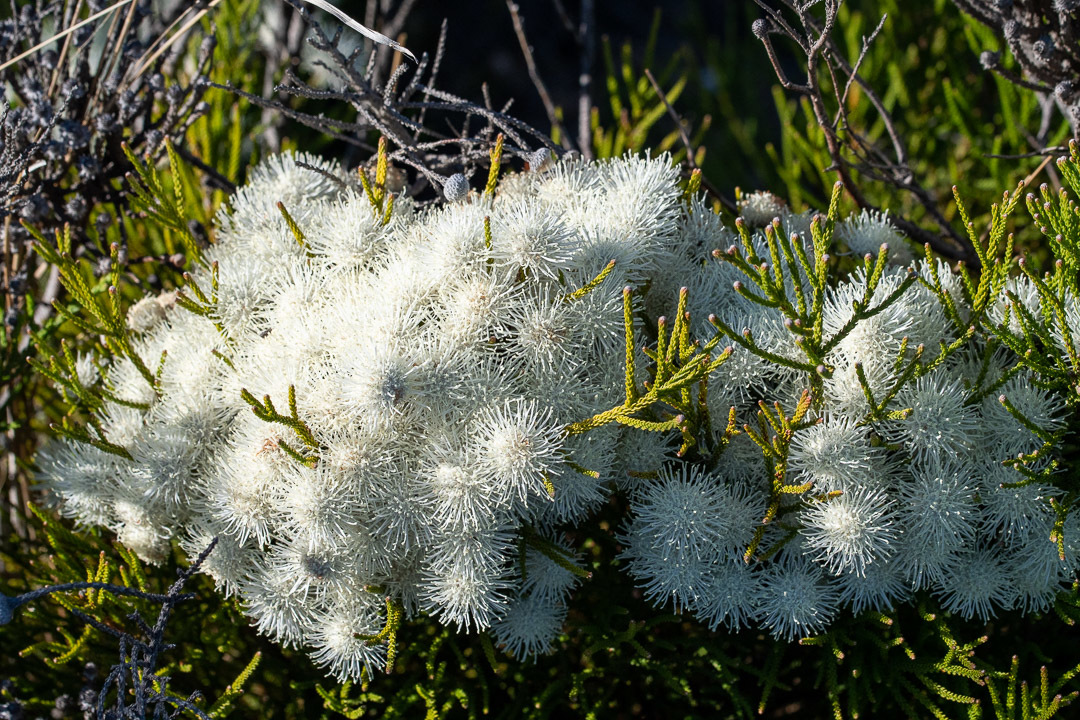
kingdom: Plantae
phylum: Tracheophyta
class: Magnoliopsida
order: Bruniales
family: Bruniaceae
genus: Brunia
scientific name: Brunia noduliflora
